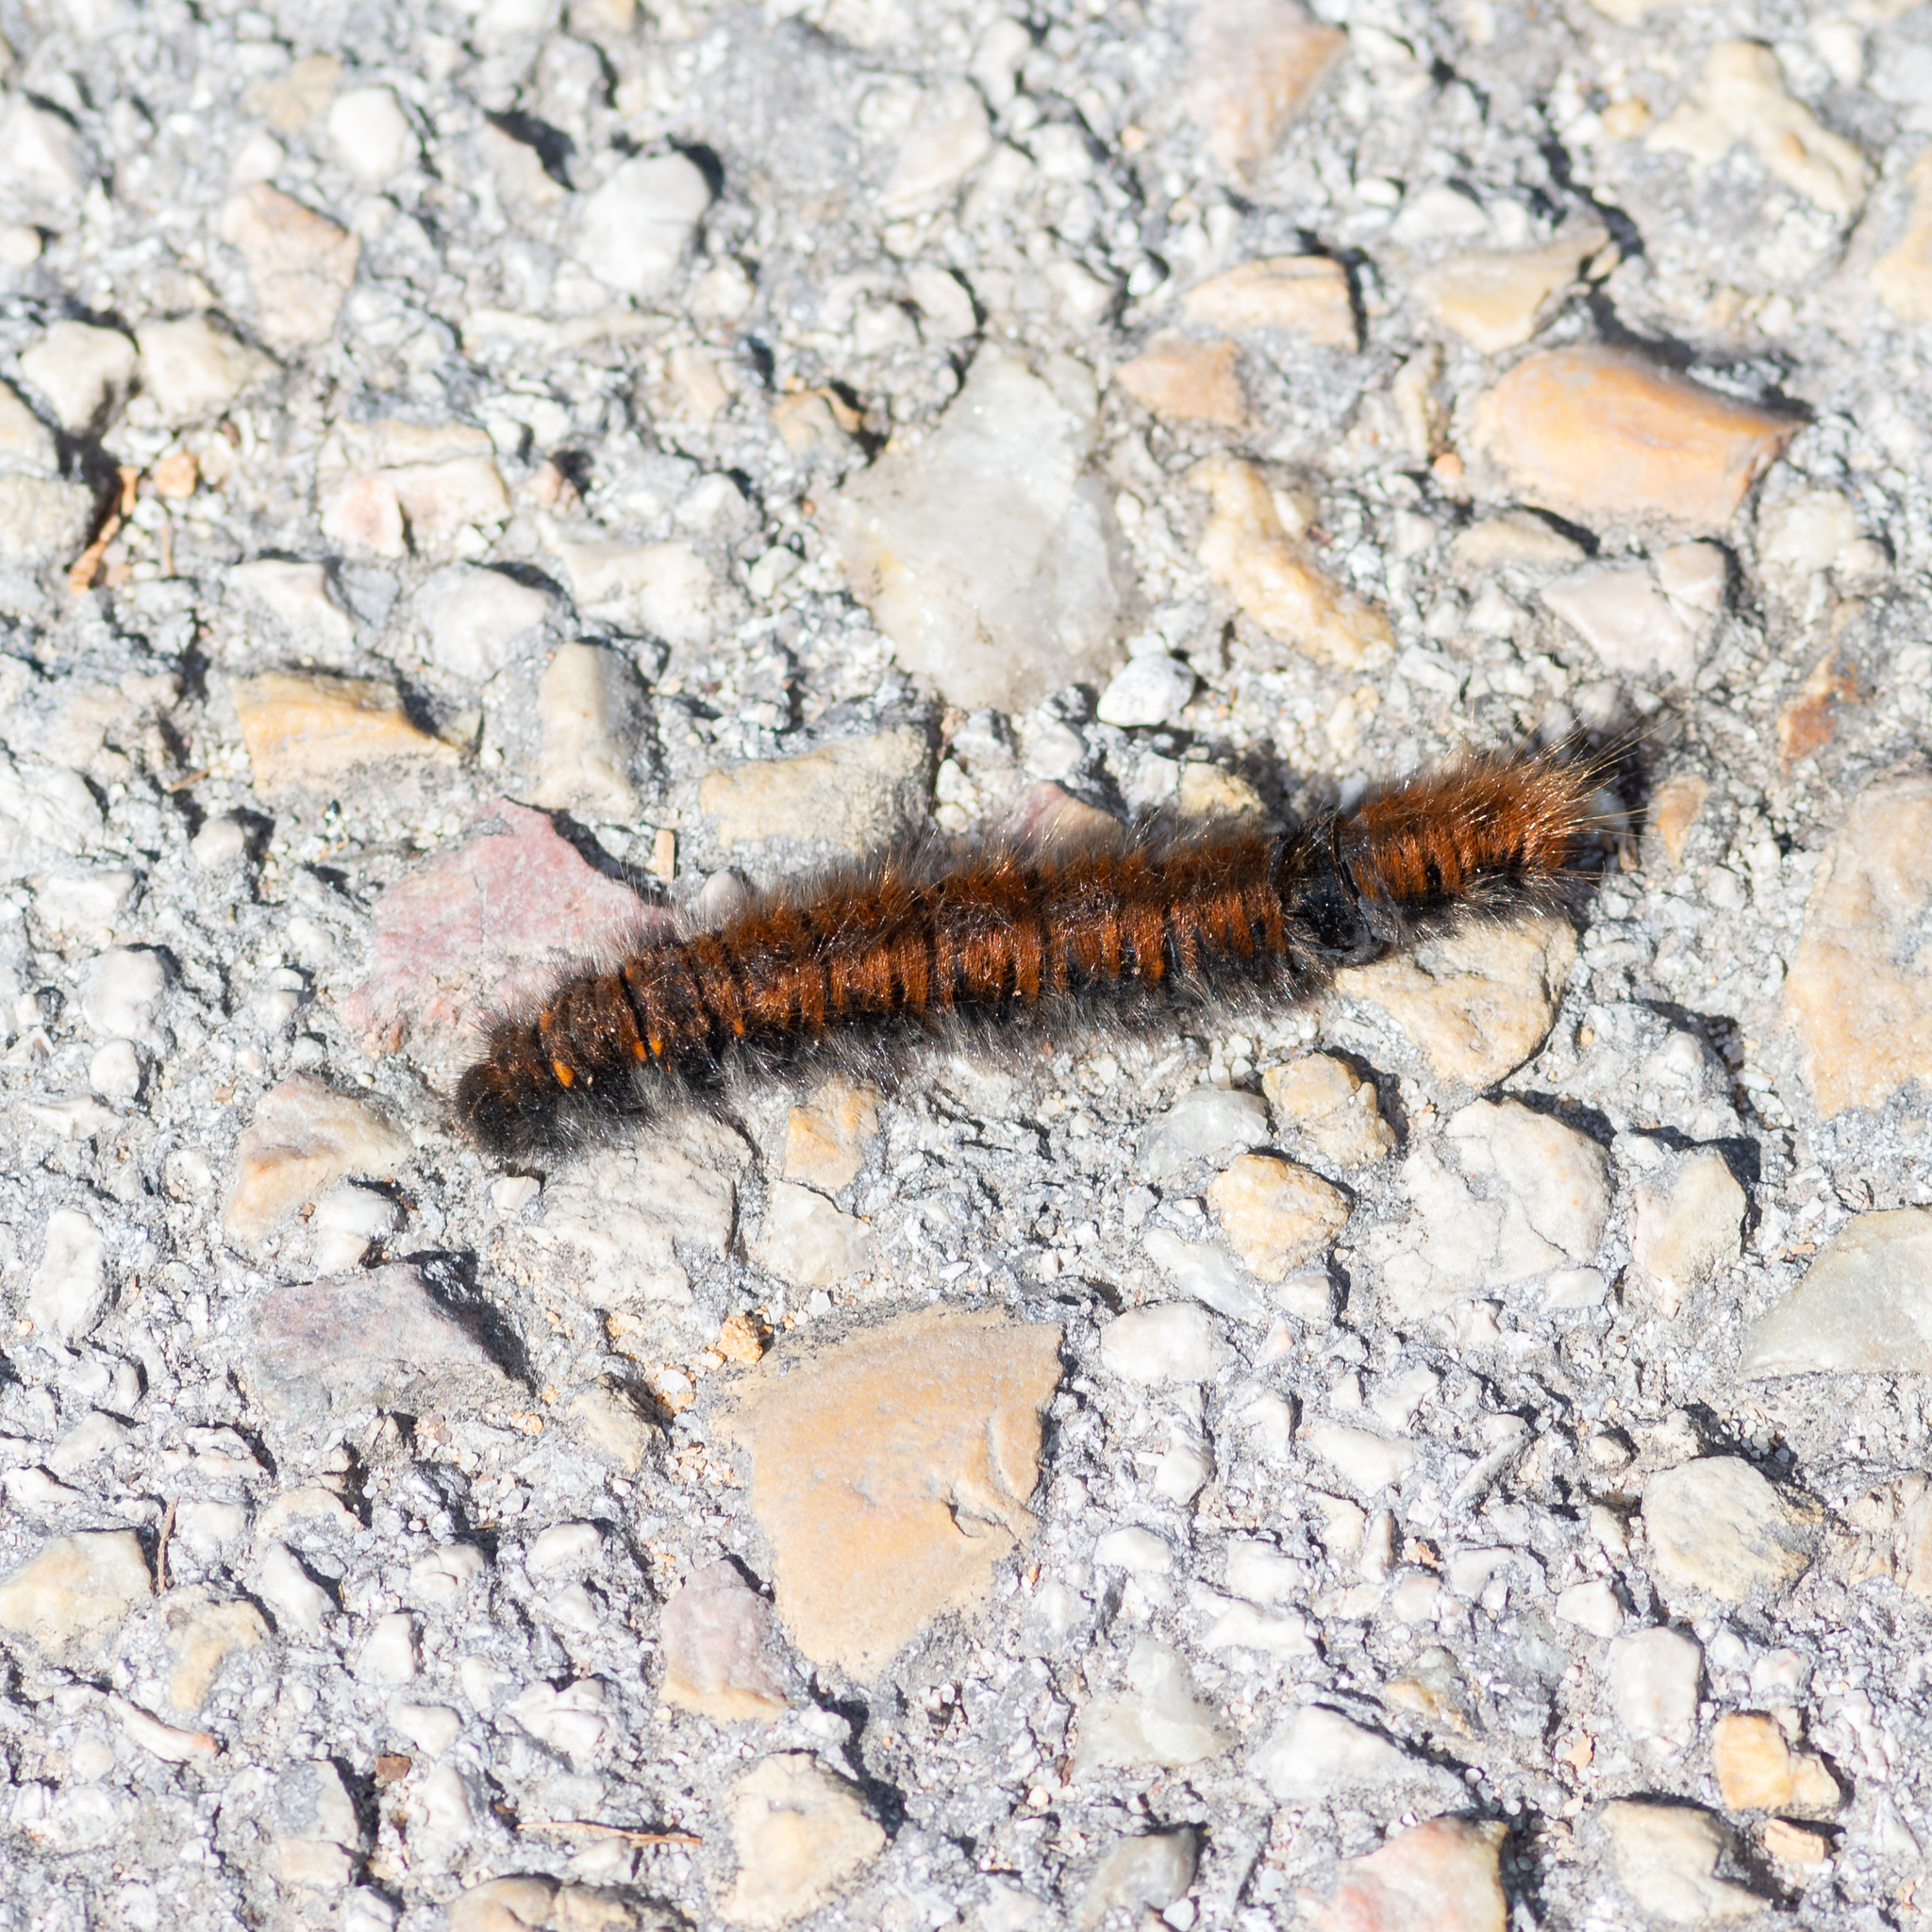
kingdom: Animalia
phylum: Arthropoda
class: Insecta
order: Lepidoptera
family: Lasiocampidae
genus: Macrothylacia
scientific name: Macrothylacia rubi
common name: Fox moth
